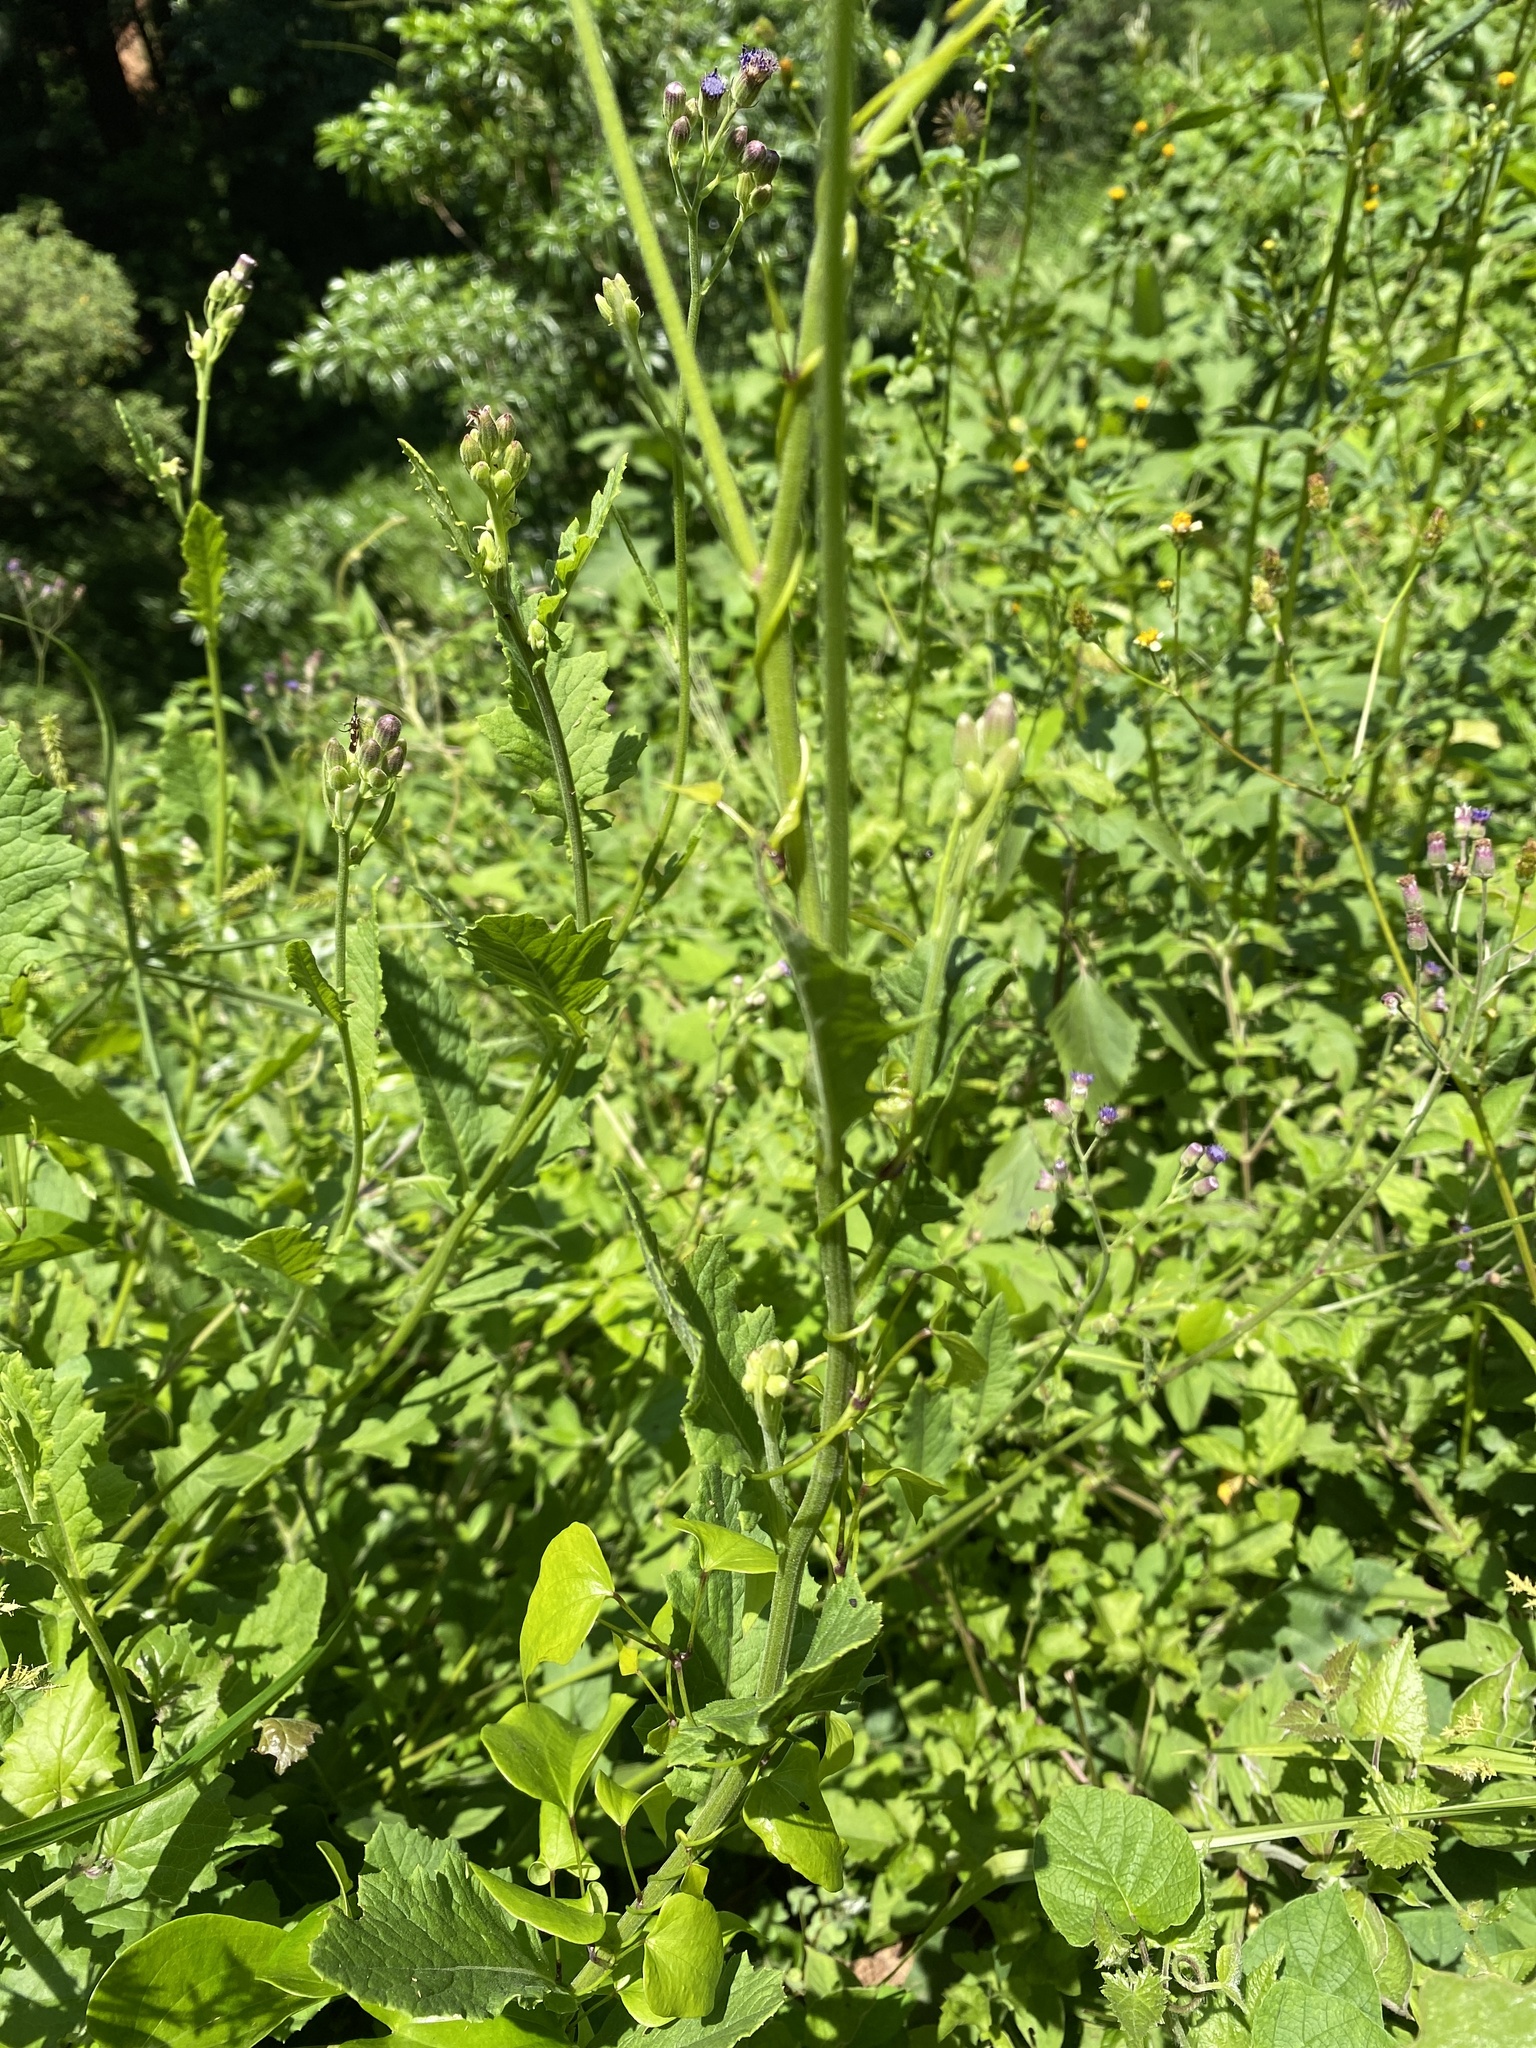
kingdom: Plantae
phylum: Tracheophyta
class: Magnoliopsida
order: Asterales
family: Asteraceae
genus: Senecio
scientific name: Senecio gerrardii
